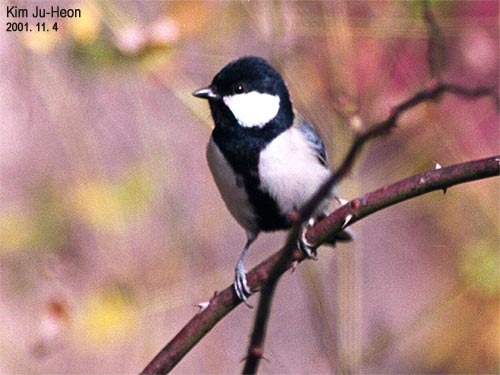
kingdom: Animalia
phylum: Chordata
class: Aves
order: Passeriformes
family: Paridae
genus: Parus
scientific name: Parus minor
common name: Japanese tit
